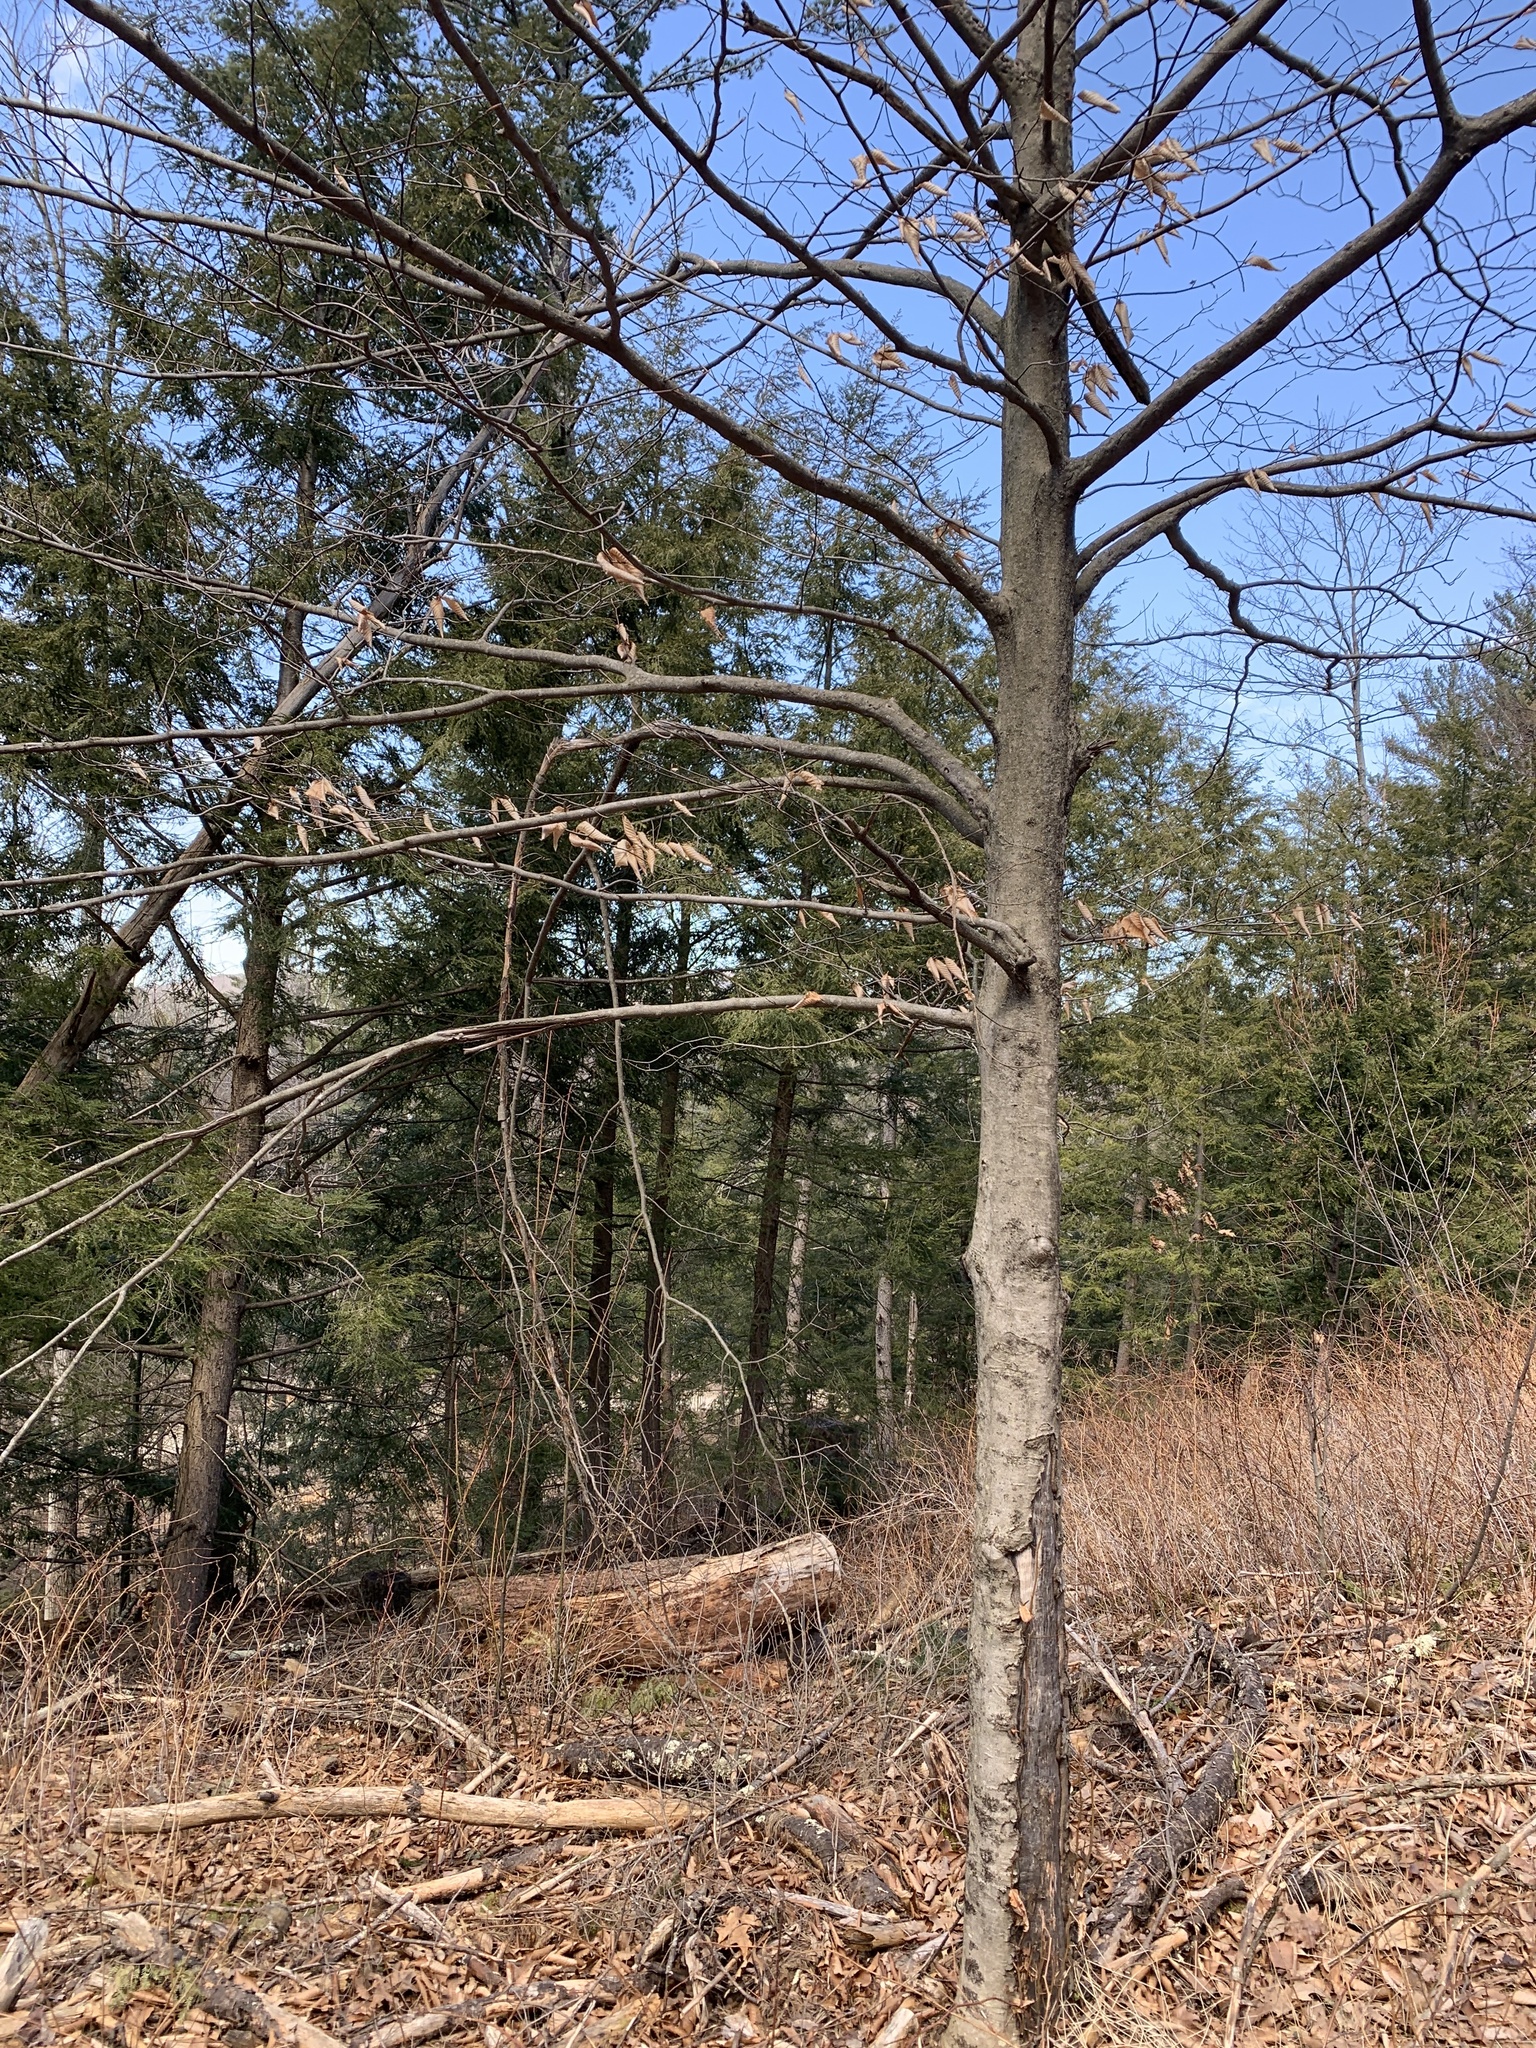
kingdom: Plantae
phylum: Tracheophyta
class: Magnoliopsida
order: Fagales
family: Fagaceae
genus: Fagus
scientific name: Fagus grandifolia
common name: American beech
